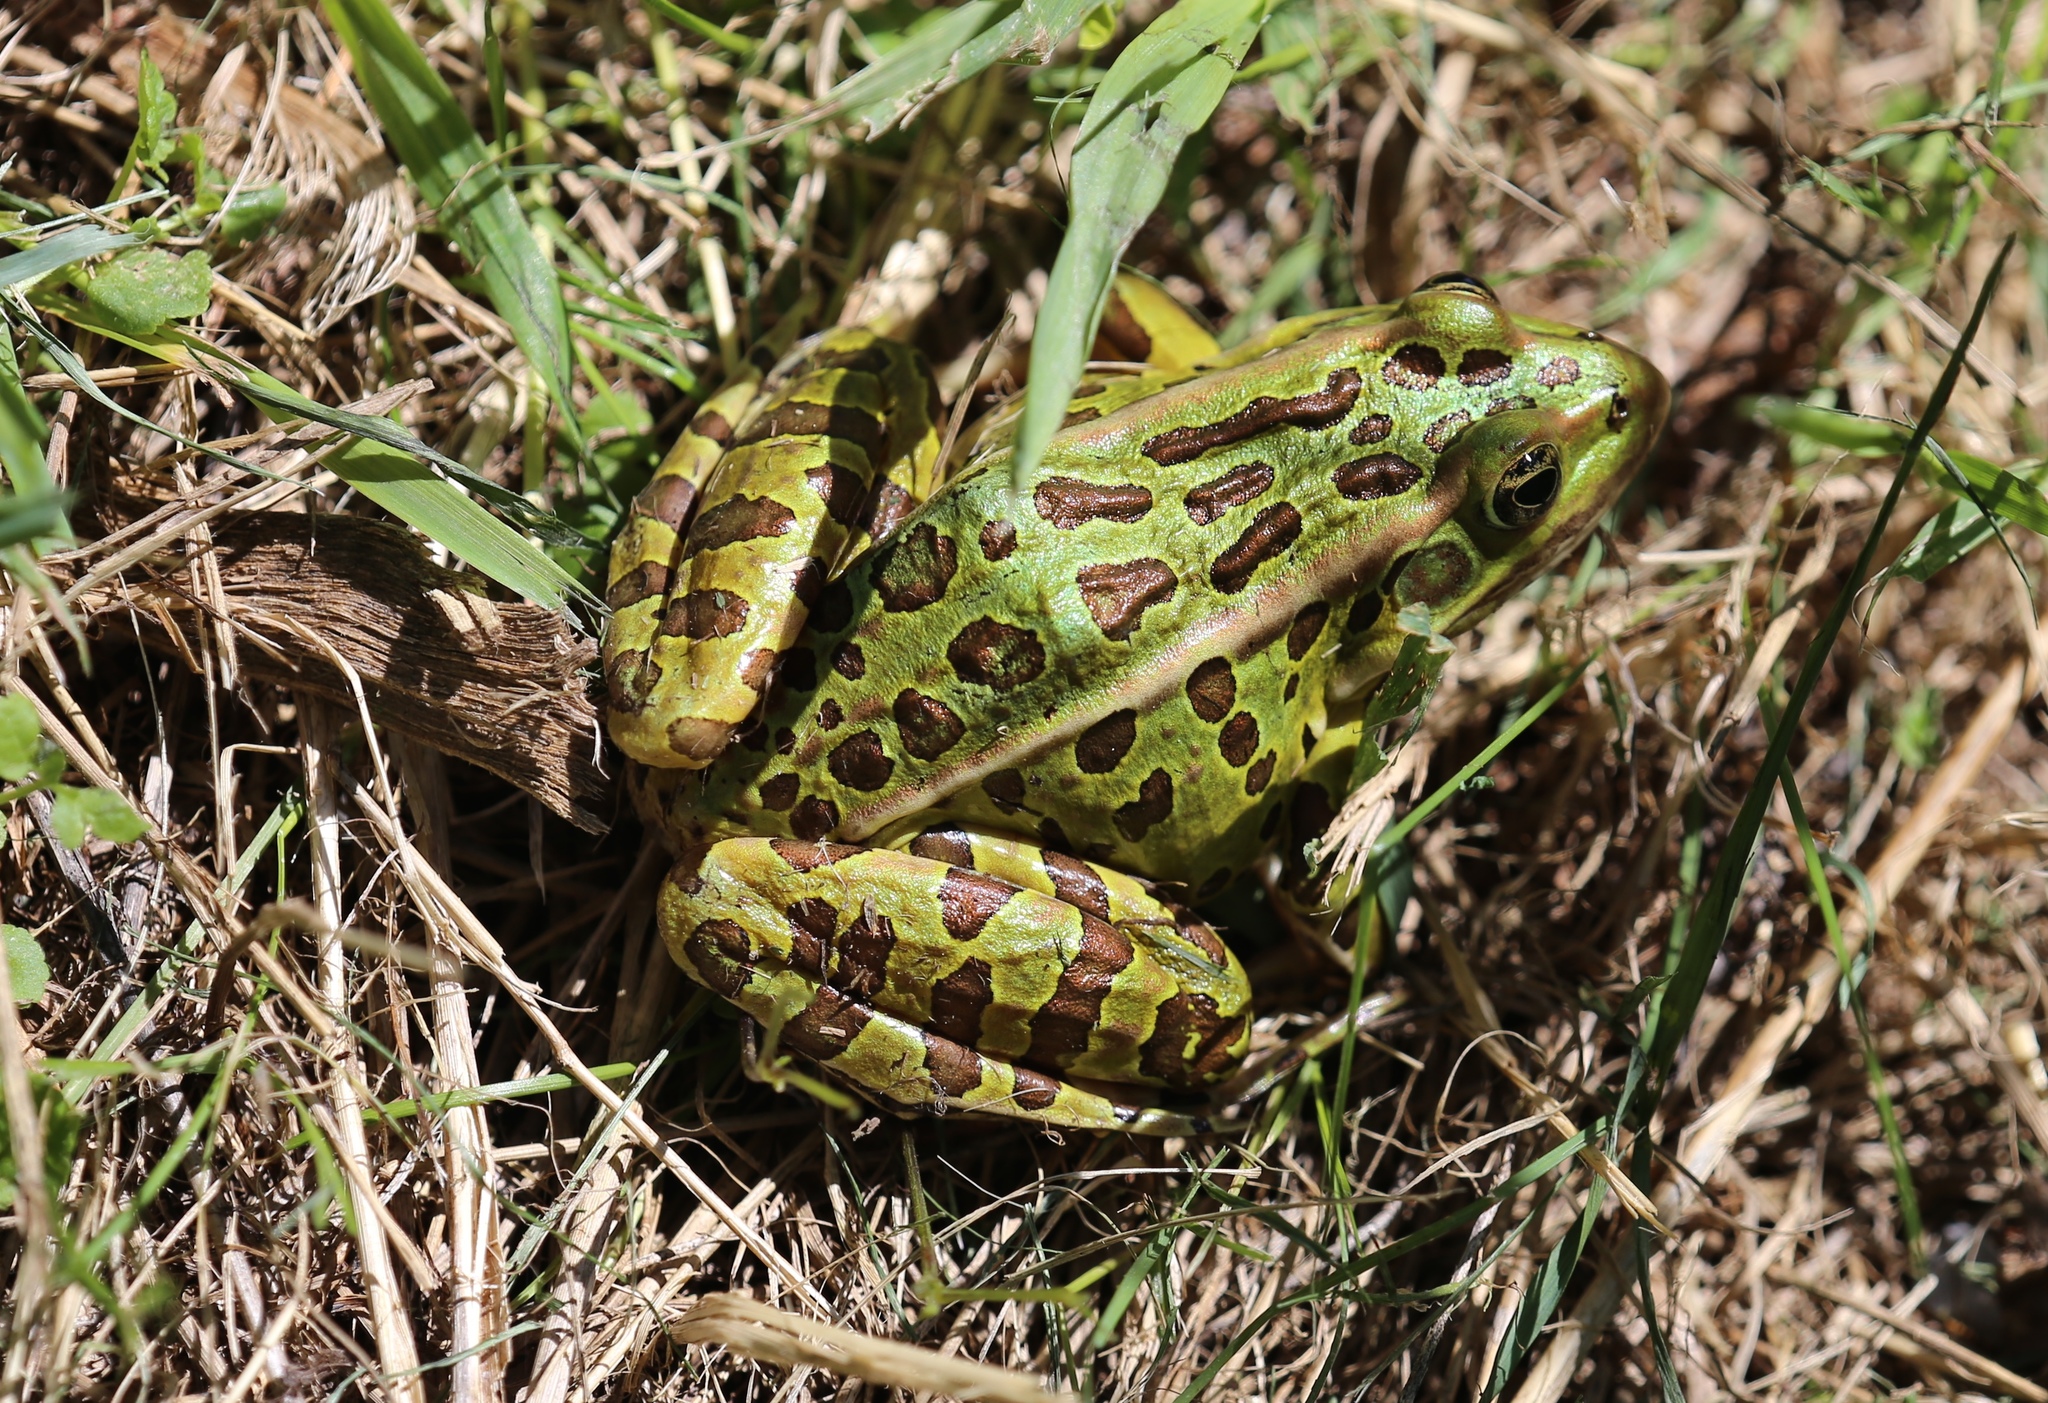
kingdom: Animalia
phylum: Chordata
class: Amphibia
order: Anura
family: Ranidae
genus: Lithobates
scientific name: Lithobates pipiens
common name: Northern leopard frog
